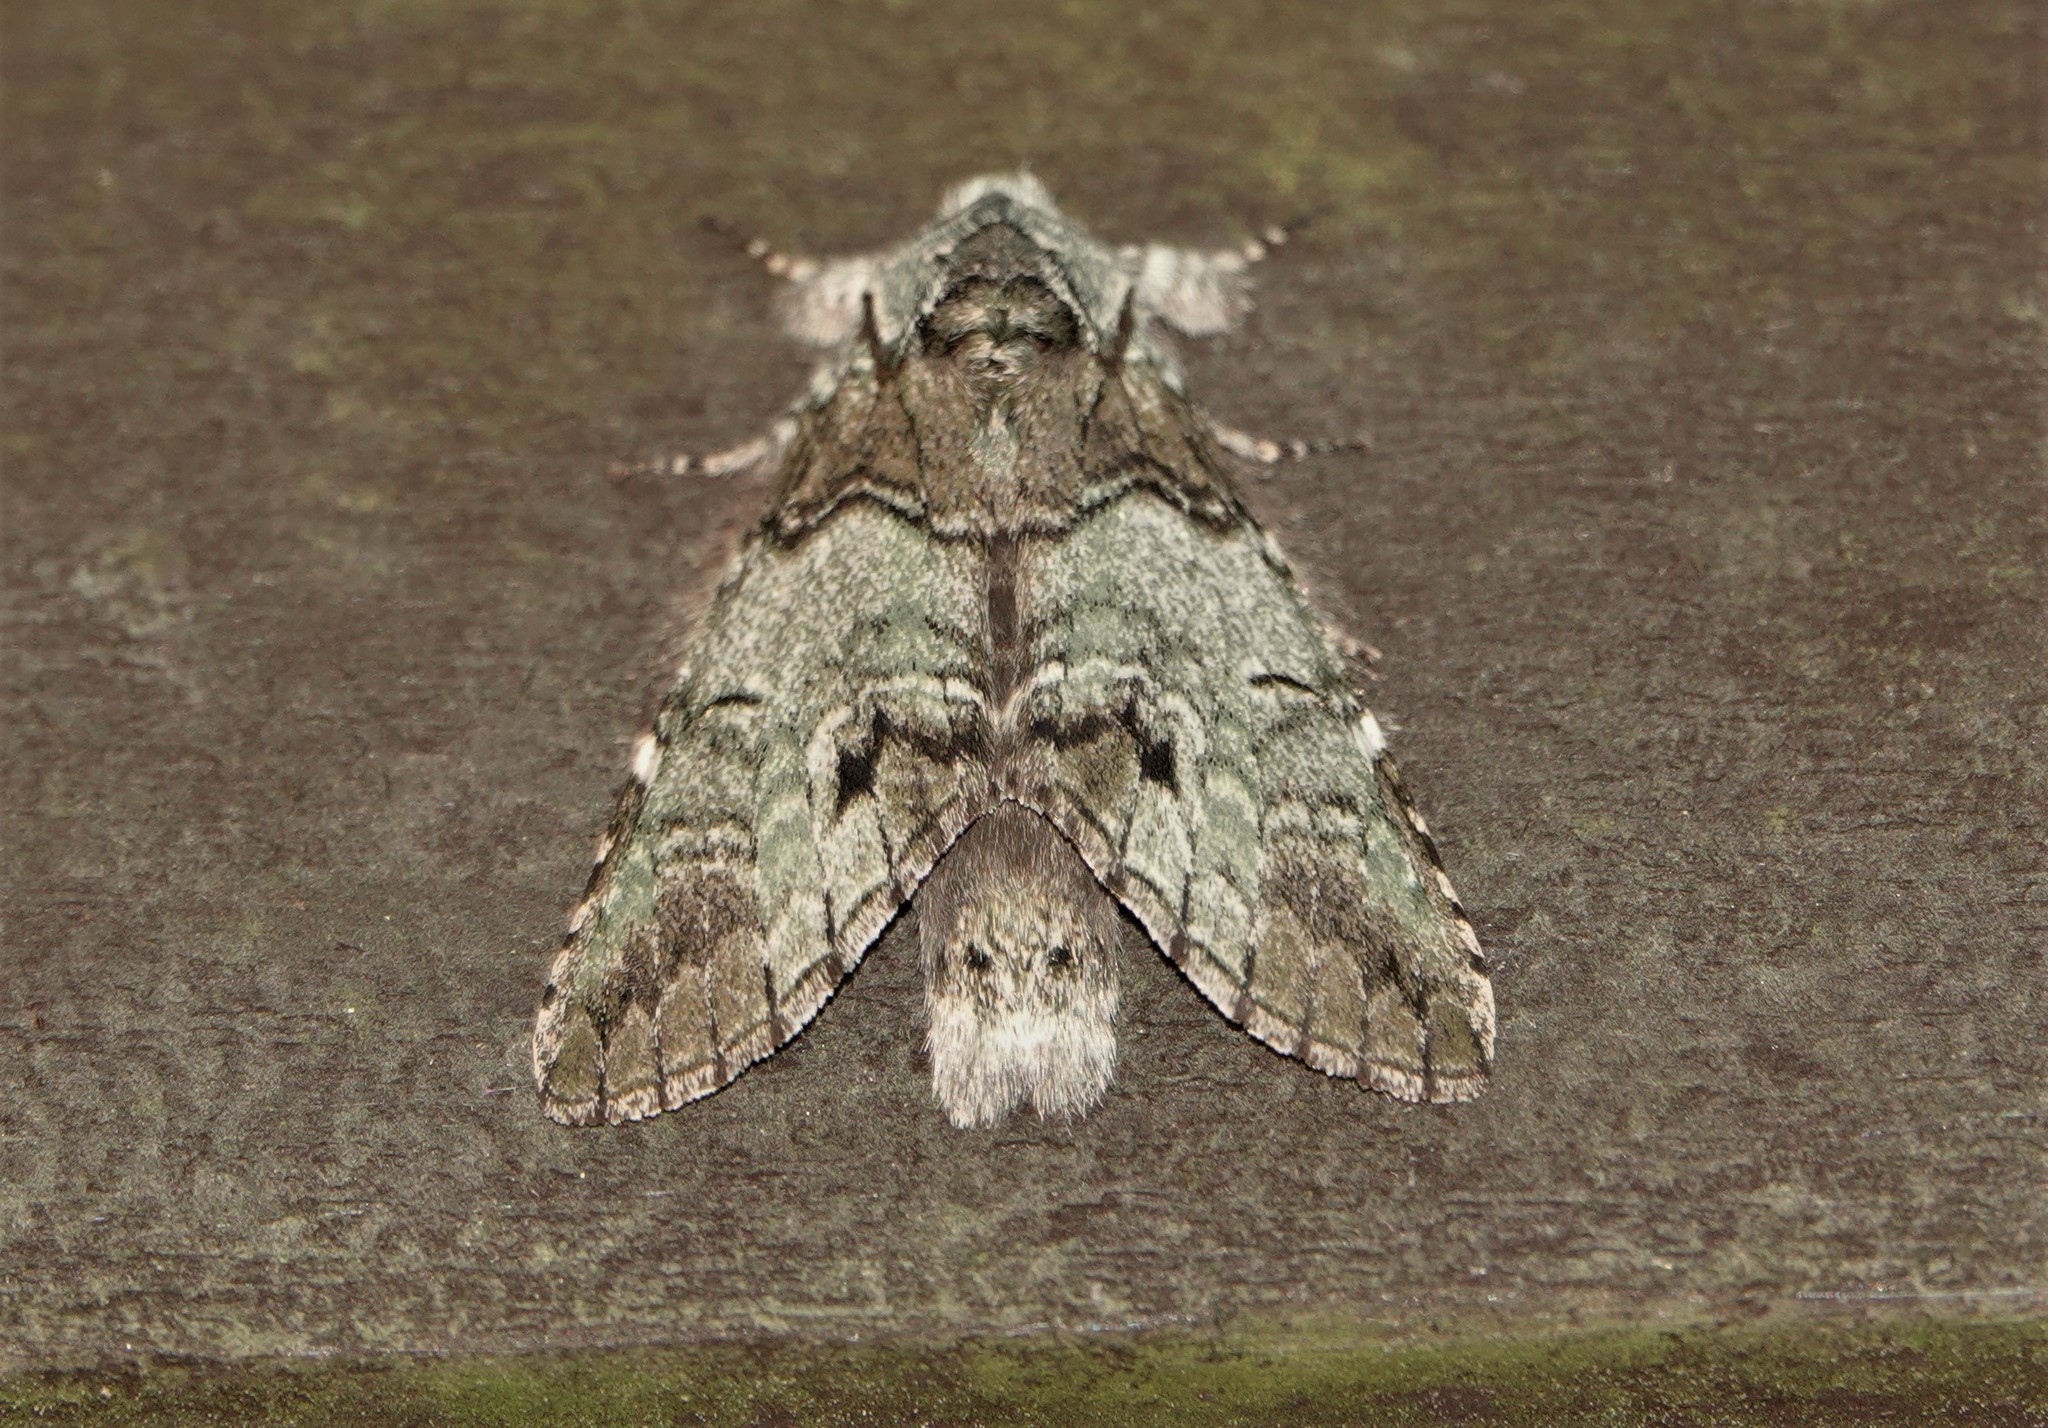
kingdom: Animalia
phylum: Arthropoda
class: Insecta
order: Lepidoptera
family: Notodontidae
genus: Macrurocampa
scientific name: Macrurocampa marthesia
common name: Mottled prominent
